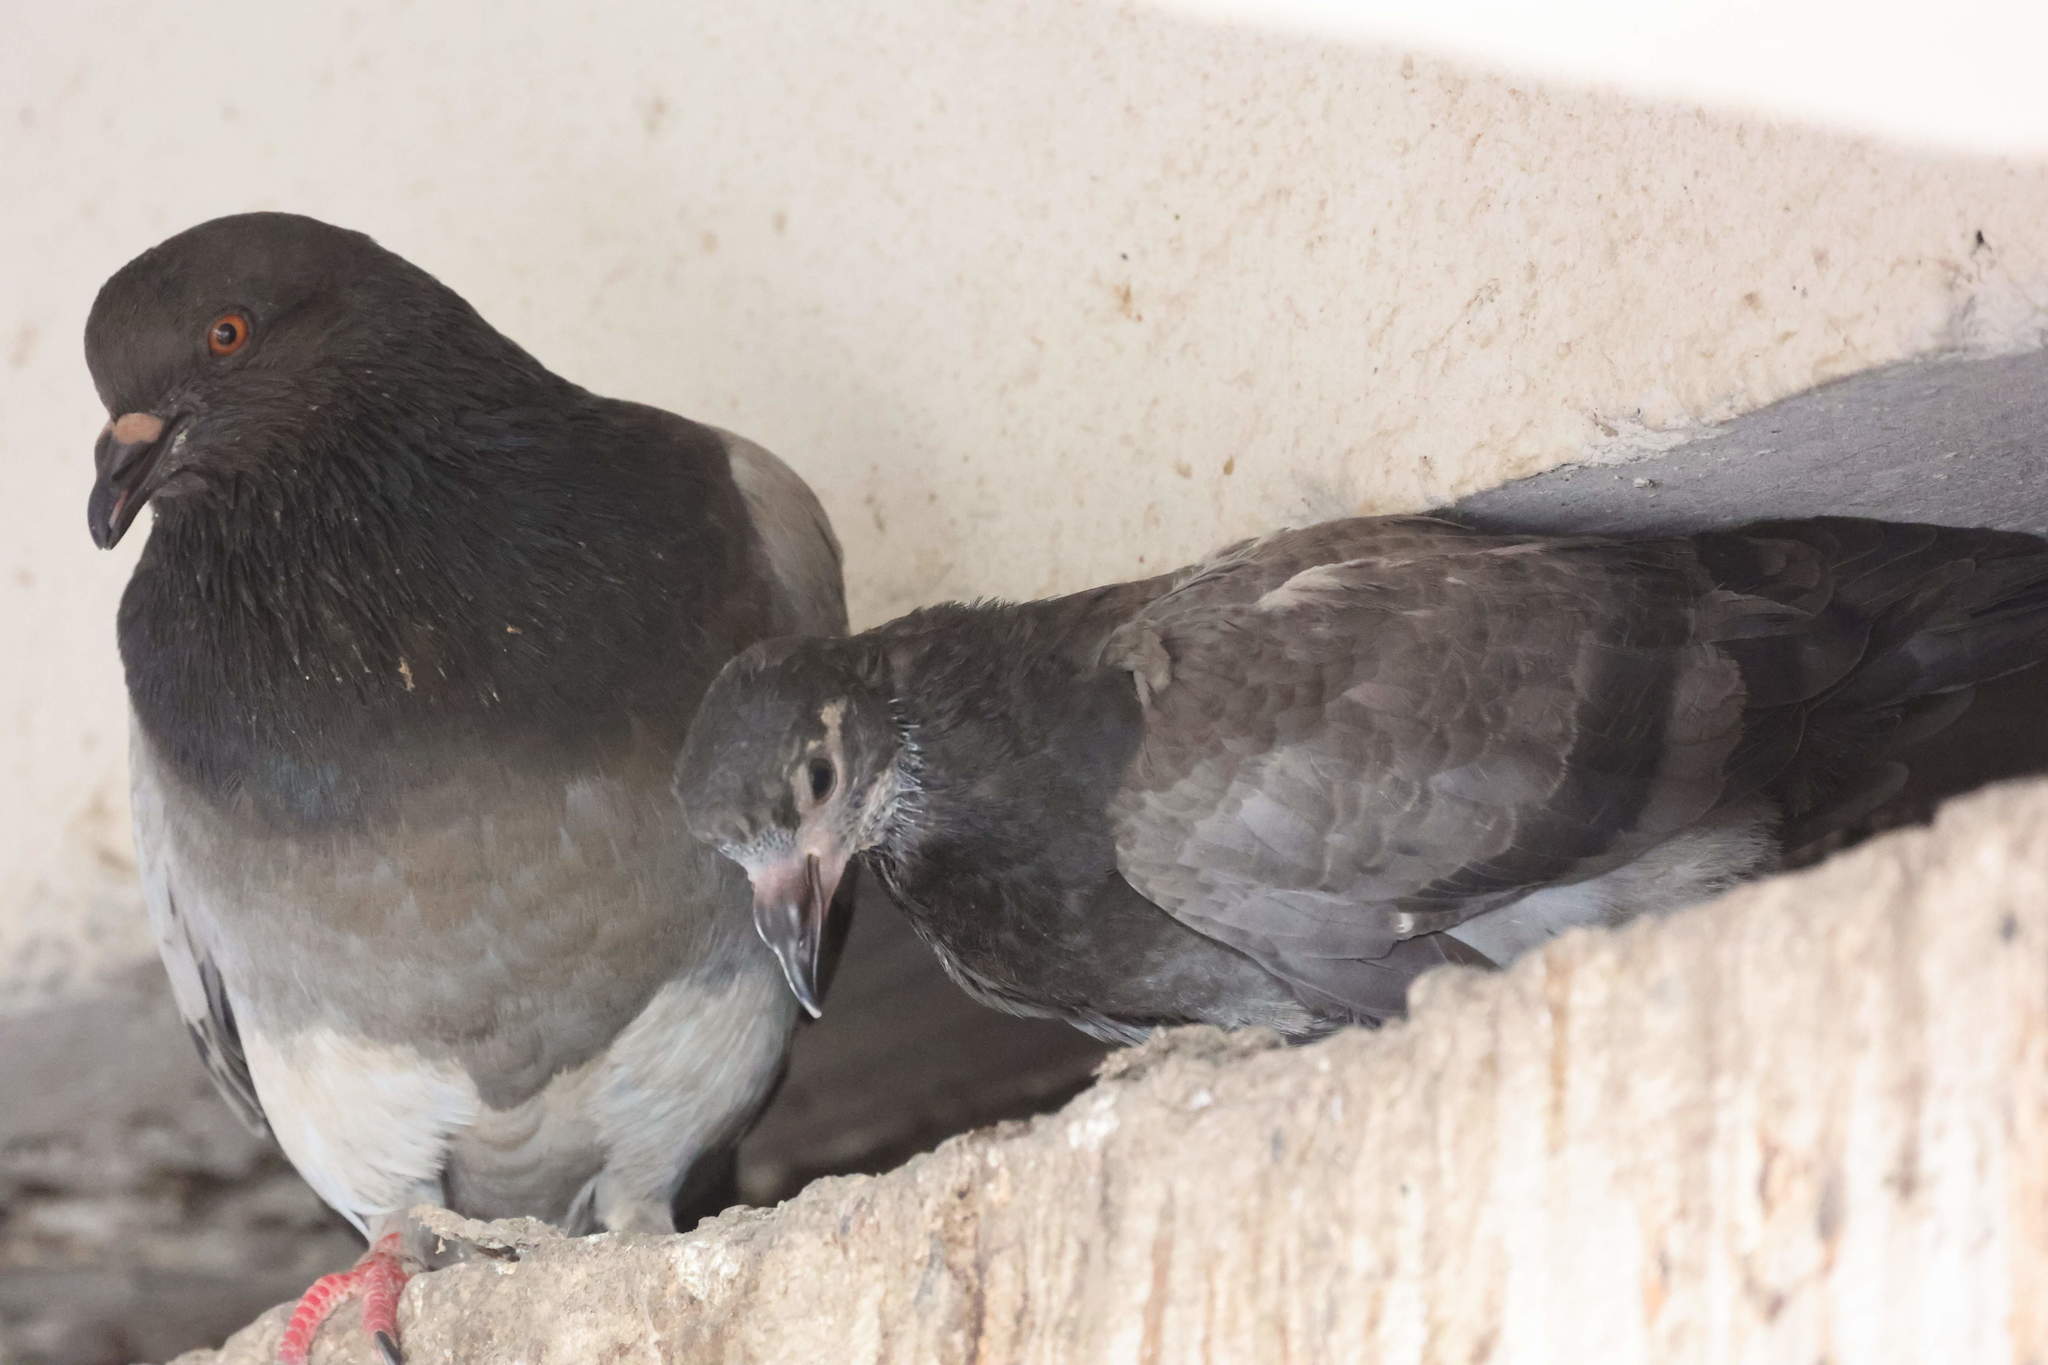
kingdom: Animalia
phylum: Chordata
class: Aves
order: Columbiformes
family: Columbidae
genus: Columba
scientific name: Columba livia
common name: Rock pigeon
